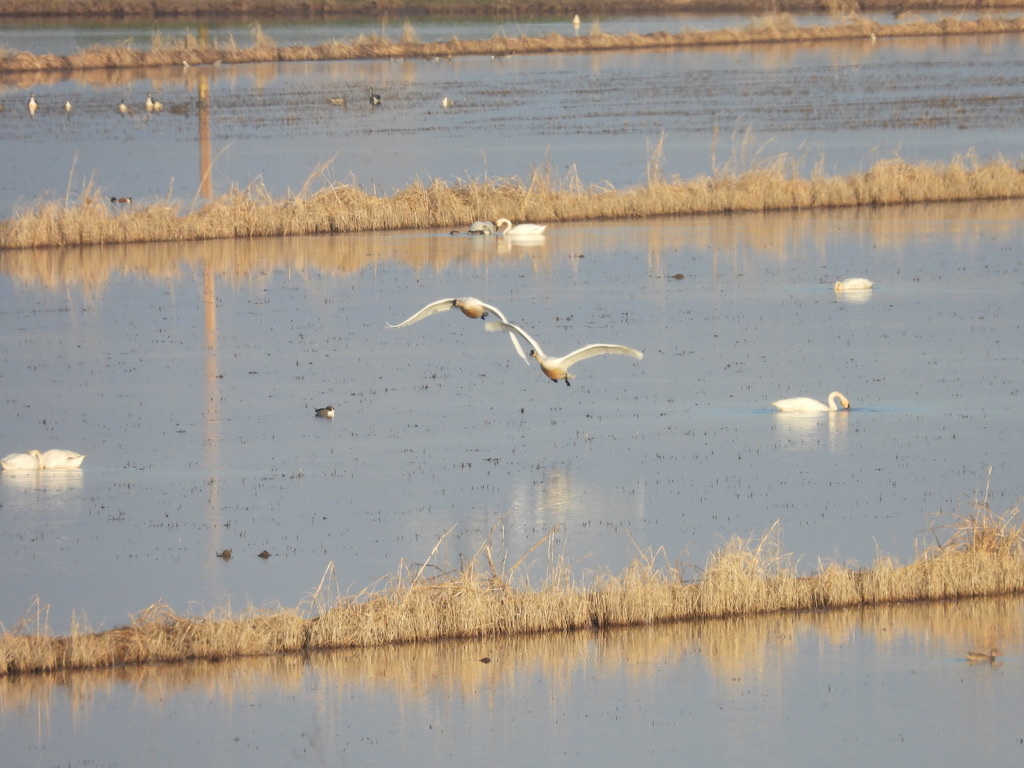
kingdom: Animalia
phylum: Chordata
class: Aves
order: Anseriformes
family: Anatidae
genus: Cygnus
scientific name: Cygnus columbianus
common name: Tundra swan
